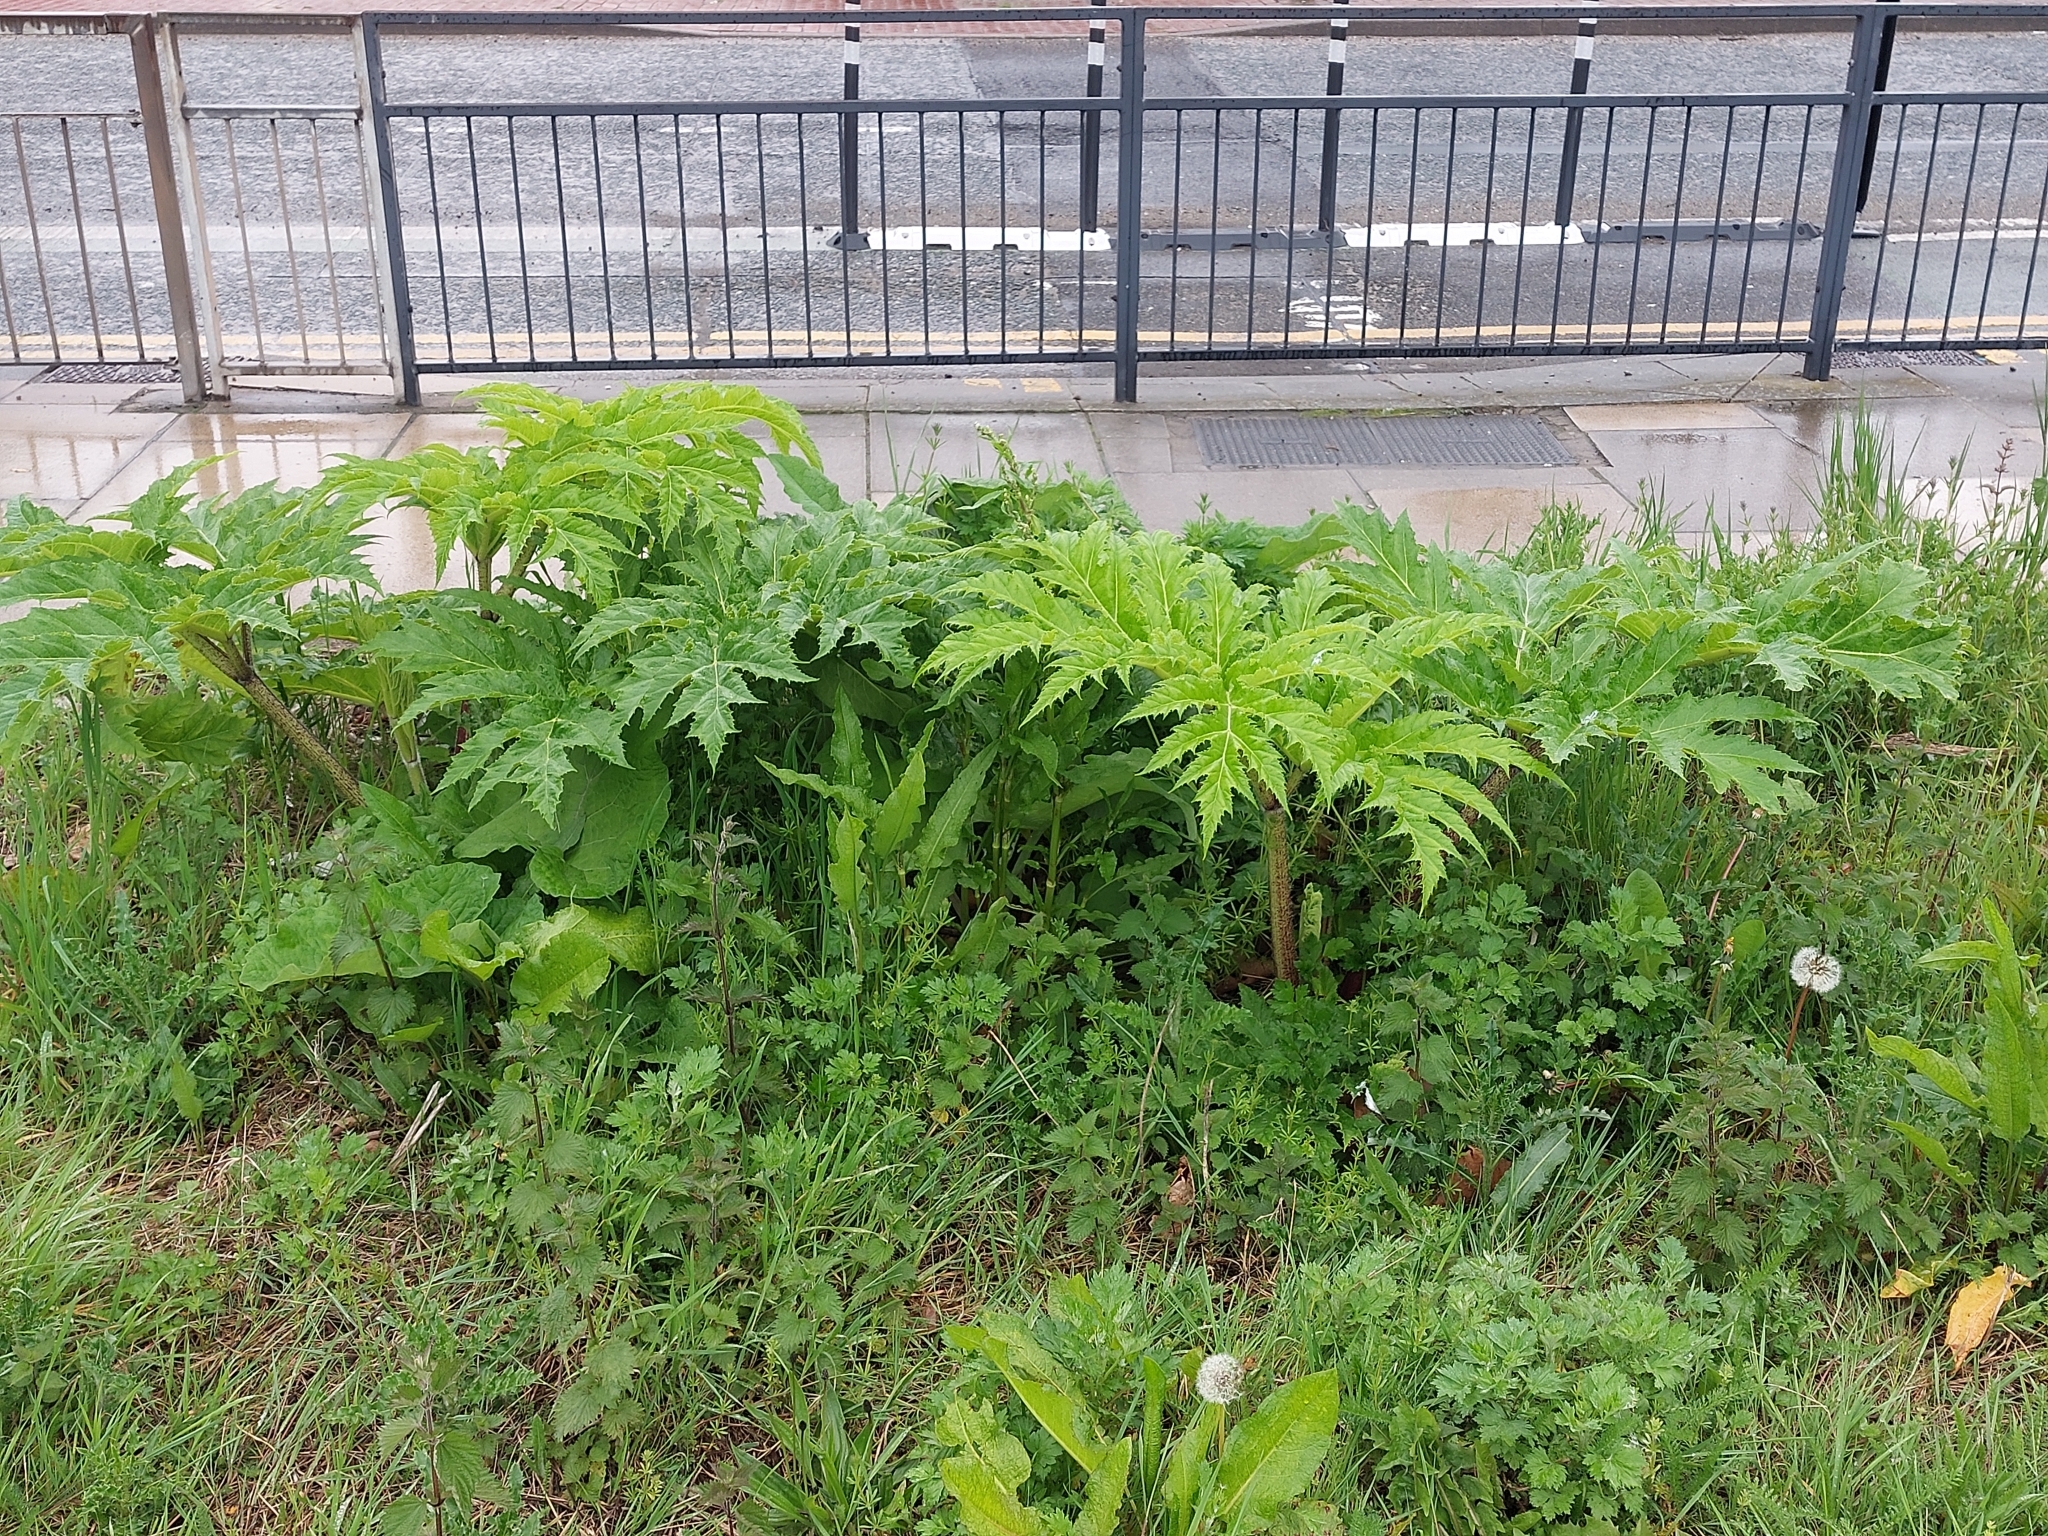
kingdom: Plantae
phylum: Tracheophyta
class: Magnoliopsida
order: Apiales
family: Apiaceae
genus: Heracleum
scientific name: Heracleum mantegazzianum
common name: Giant hogweed
